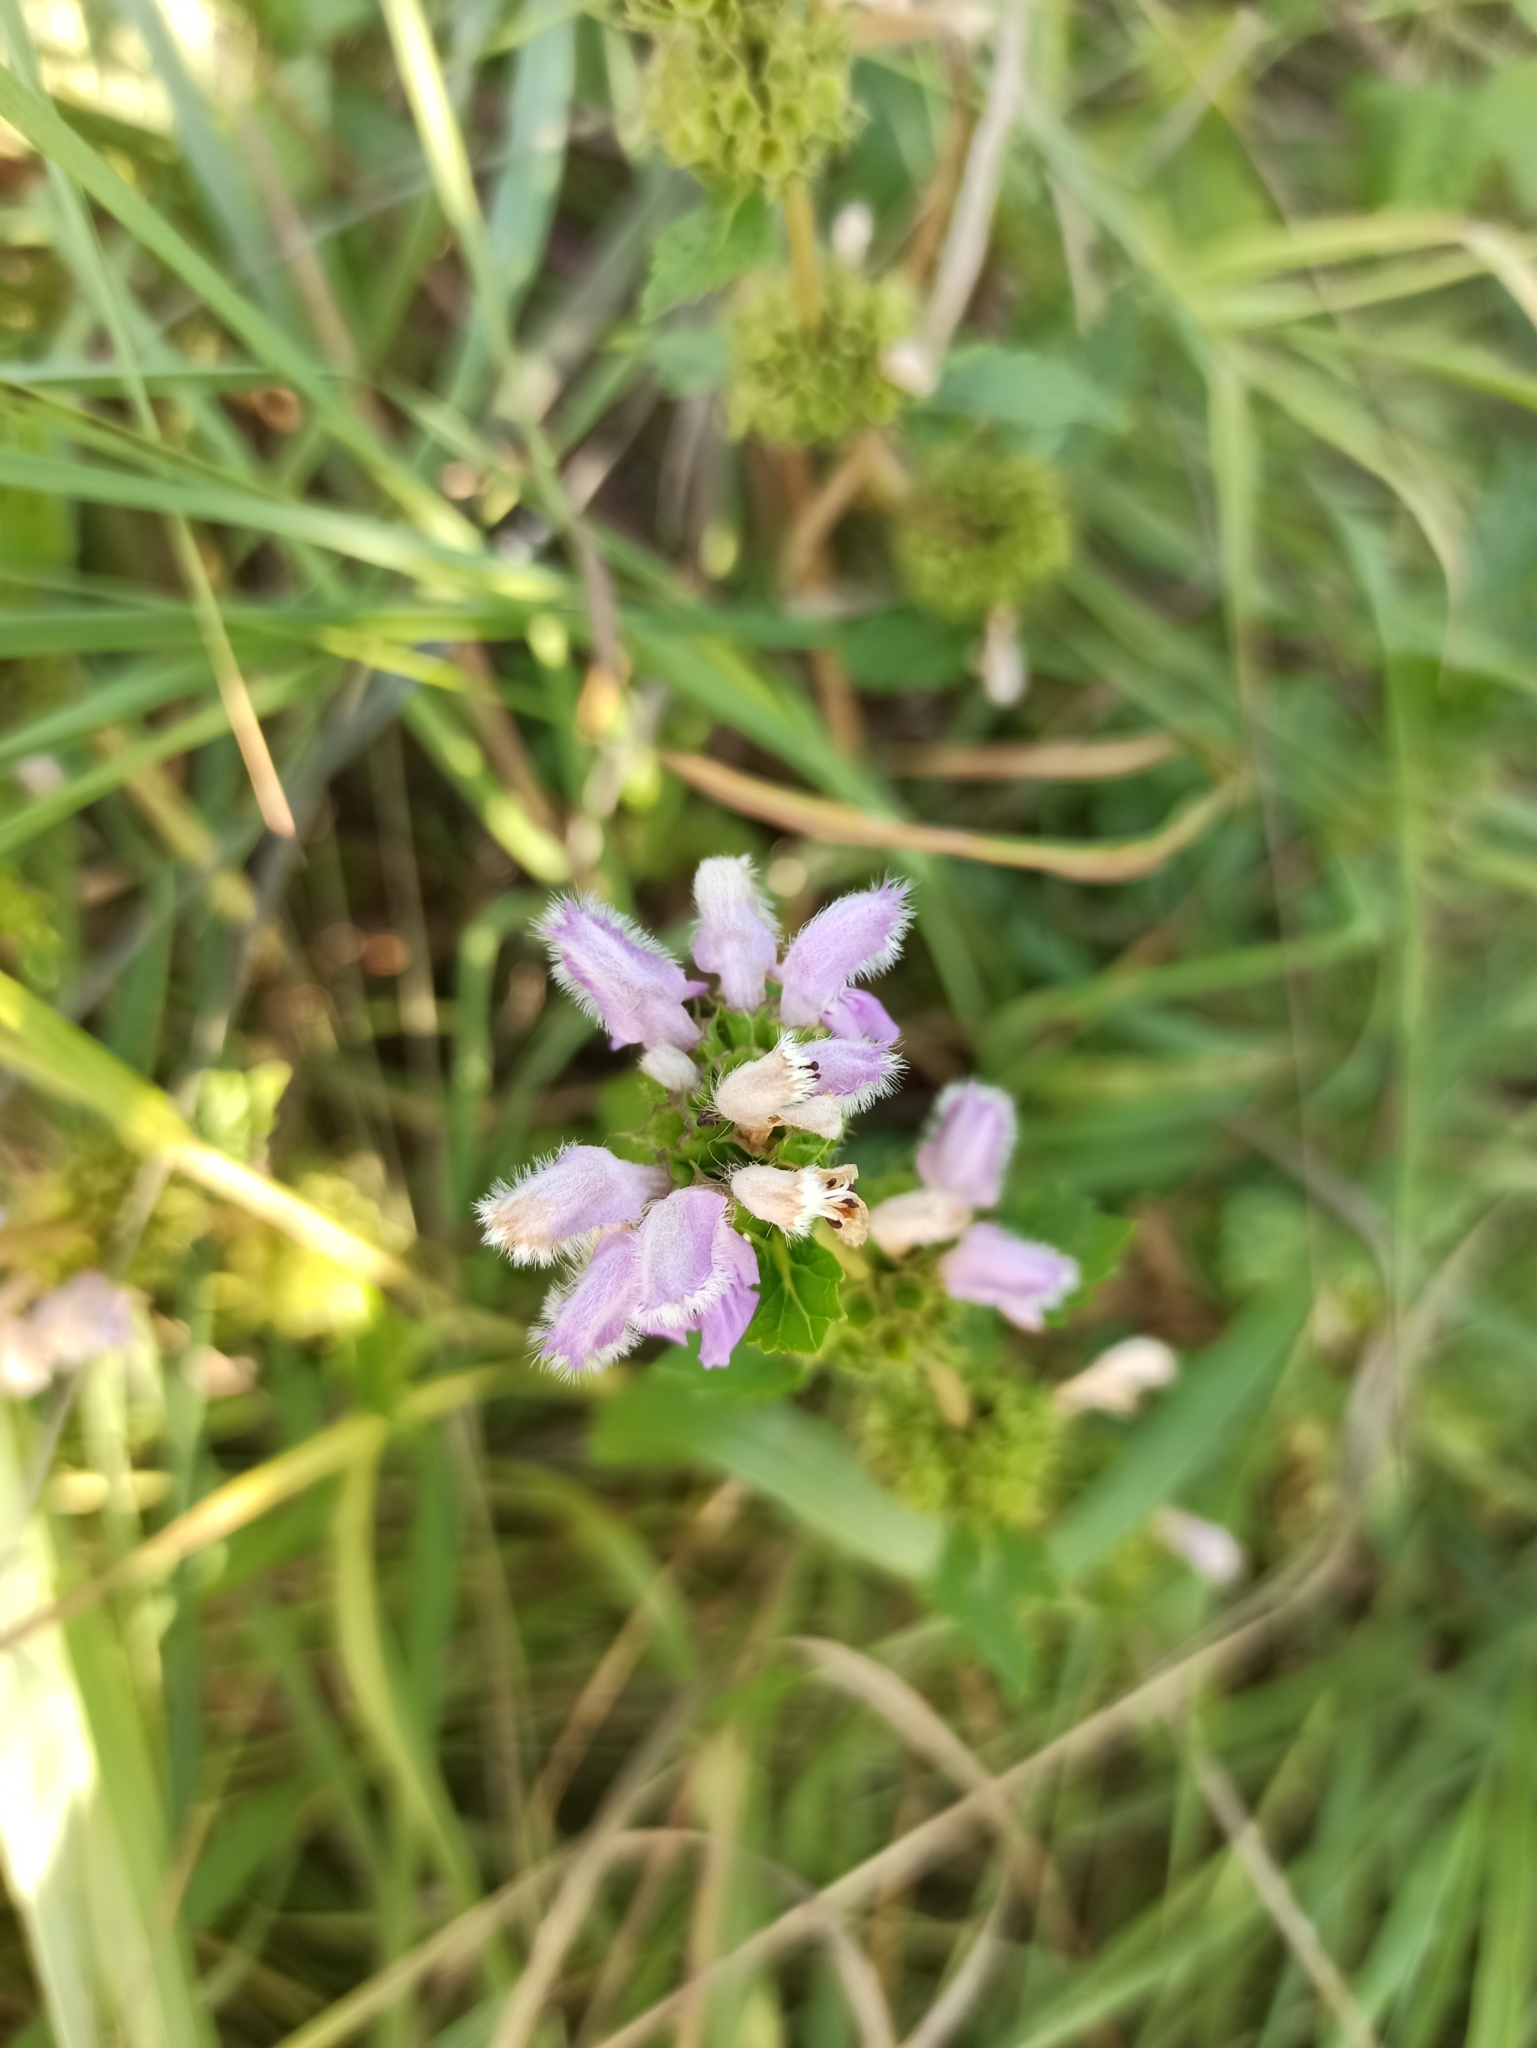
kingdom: Plantae
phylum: Tracheophyta
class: Magnoliopsida
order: Lamiales
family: Lamiaceae
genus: Phlomoides
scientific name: Phlomoides tuberosa
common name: Tuberous jerusalem sage
